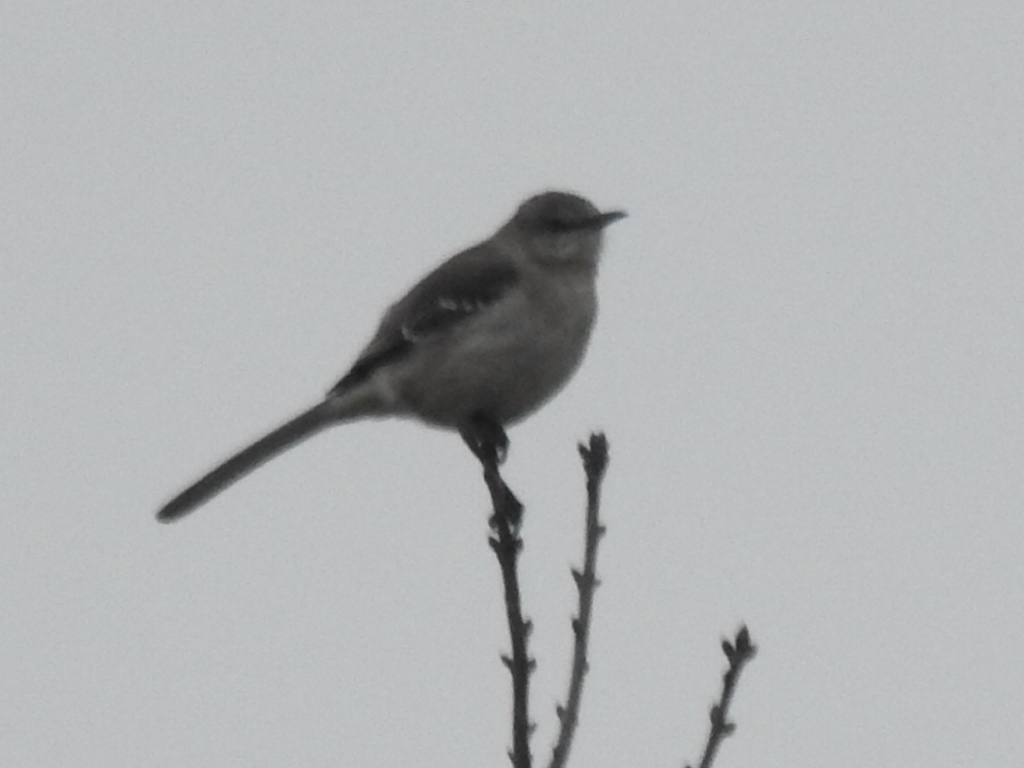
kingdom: Animalia
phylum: Chordata
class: Aves
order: Passeriformes
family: Mimidae
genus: Mimus
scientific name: Mimus polyglottos
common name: Northern mockingbird
